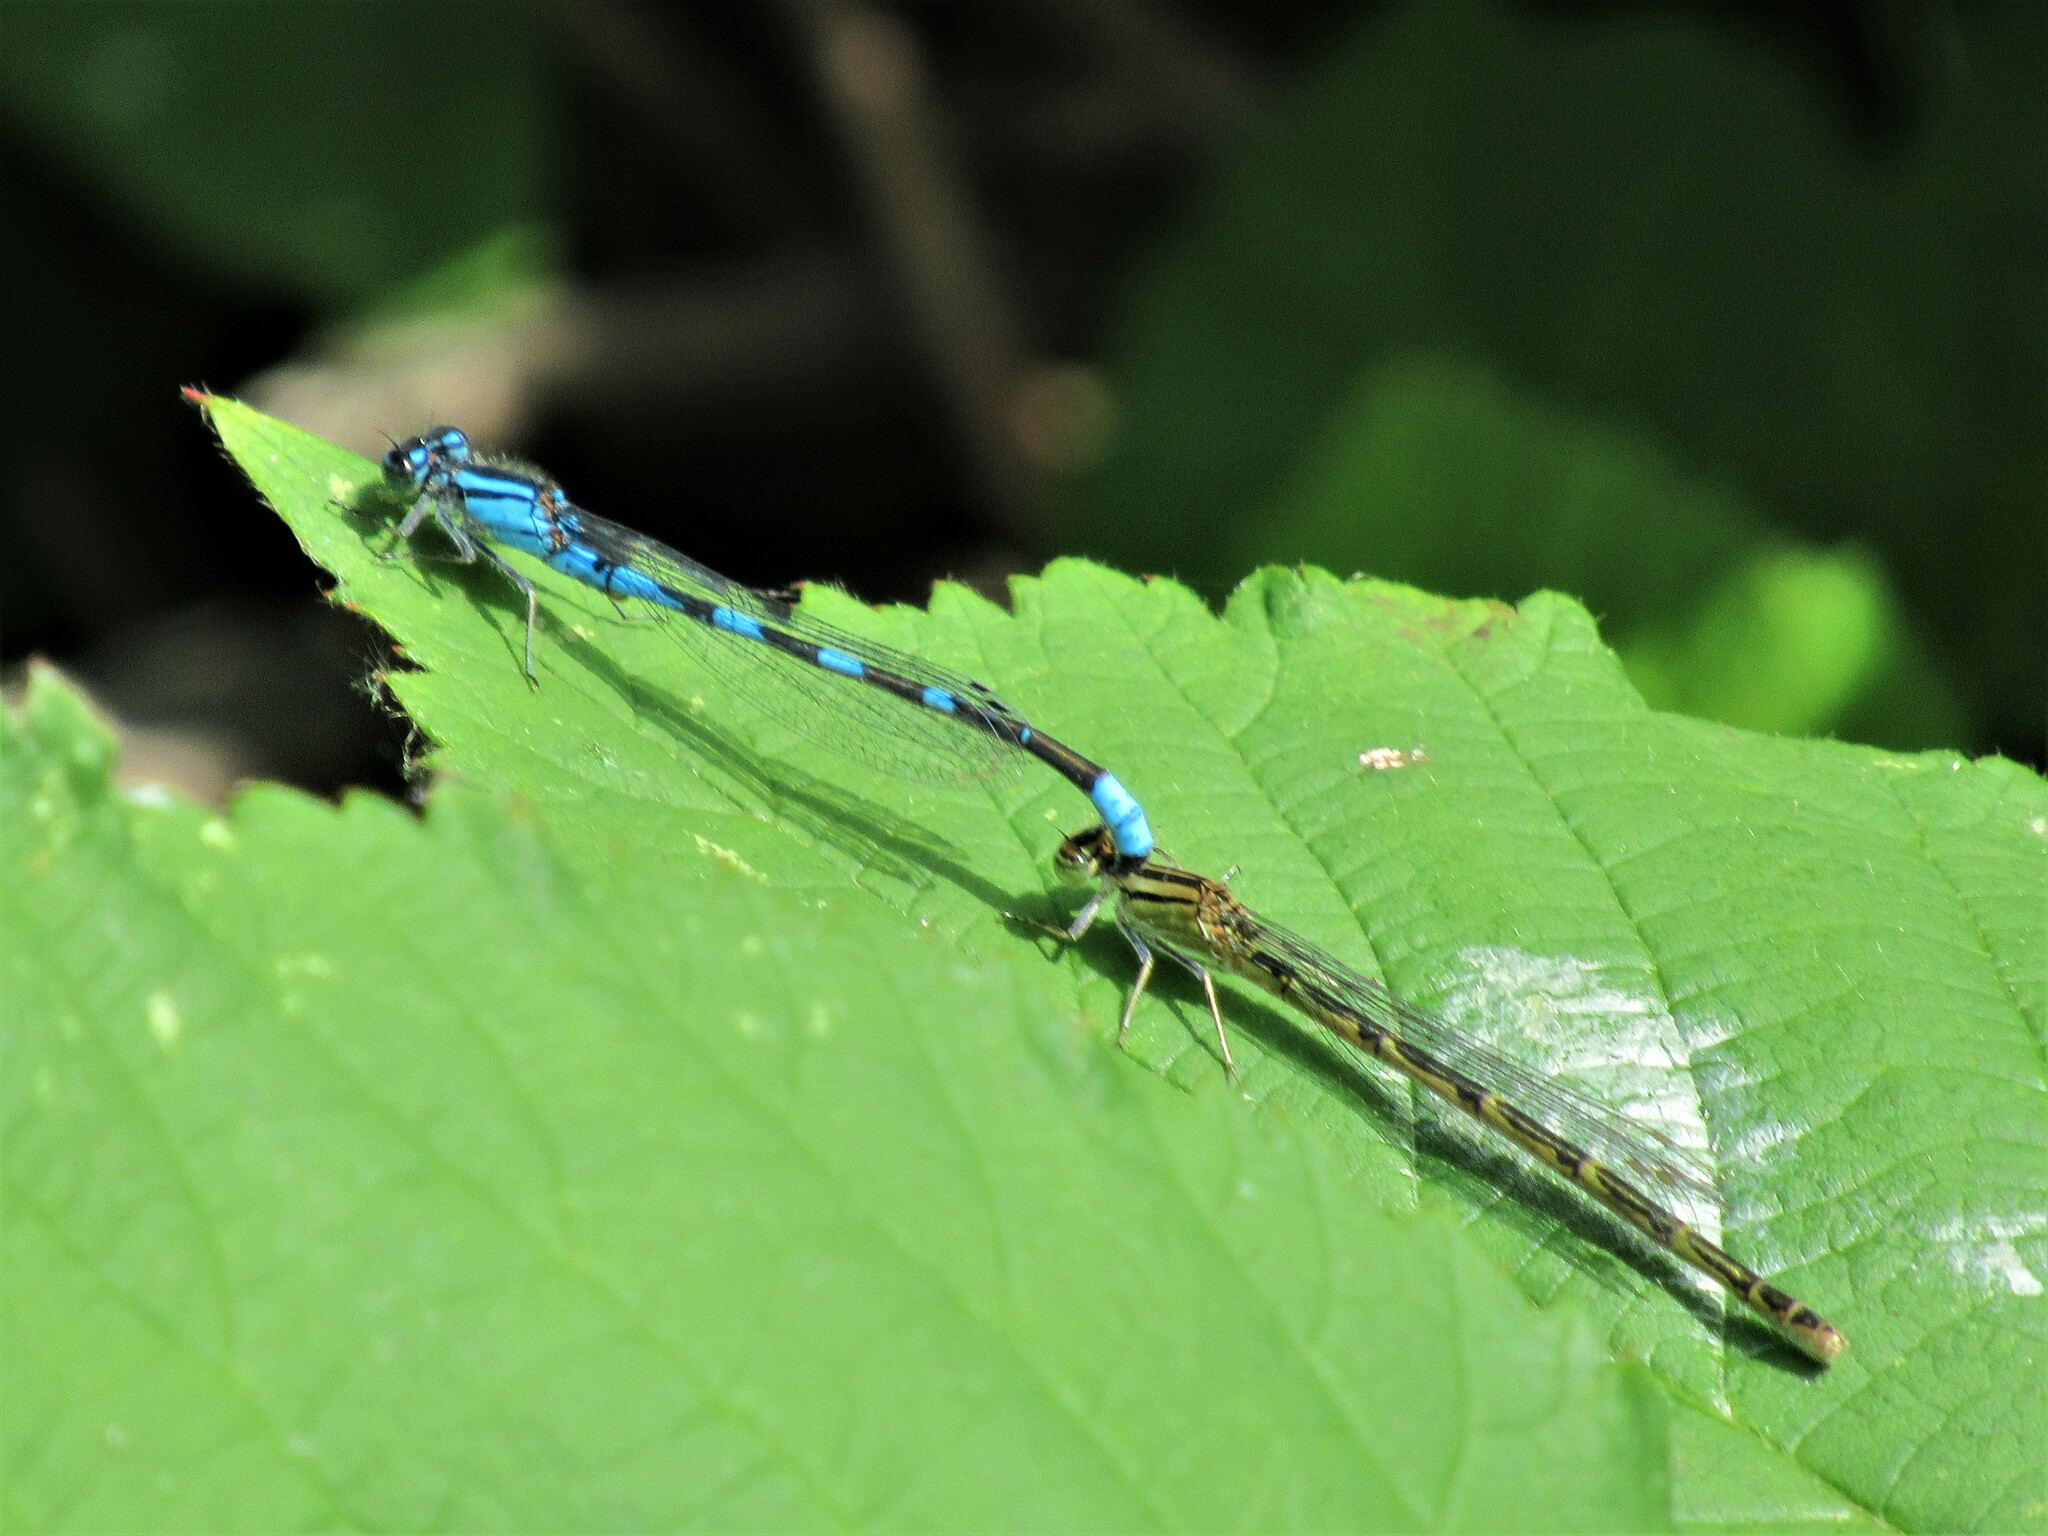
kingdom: Animalia
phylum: Arthropoda
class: Insecta
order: Odonata
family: Coenagrionidae
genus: Enallagma
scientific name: Enallagma carunculatum
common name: Tule bluet
